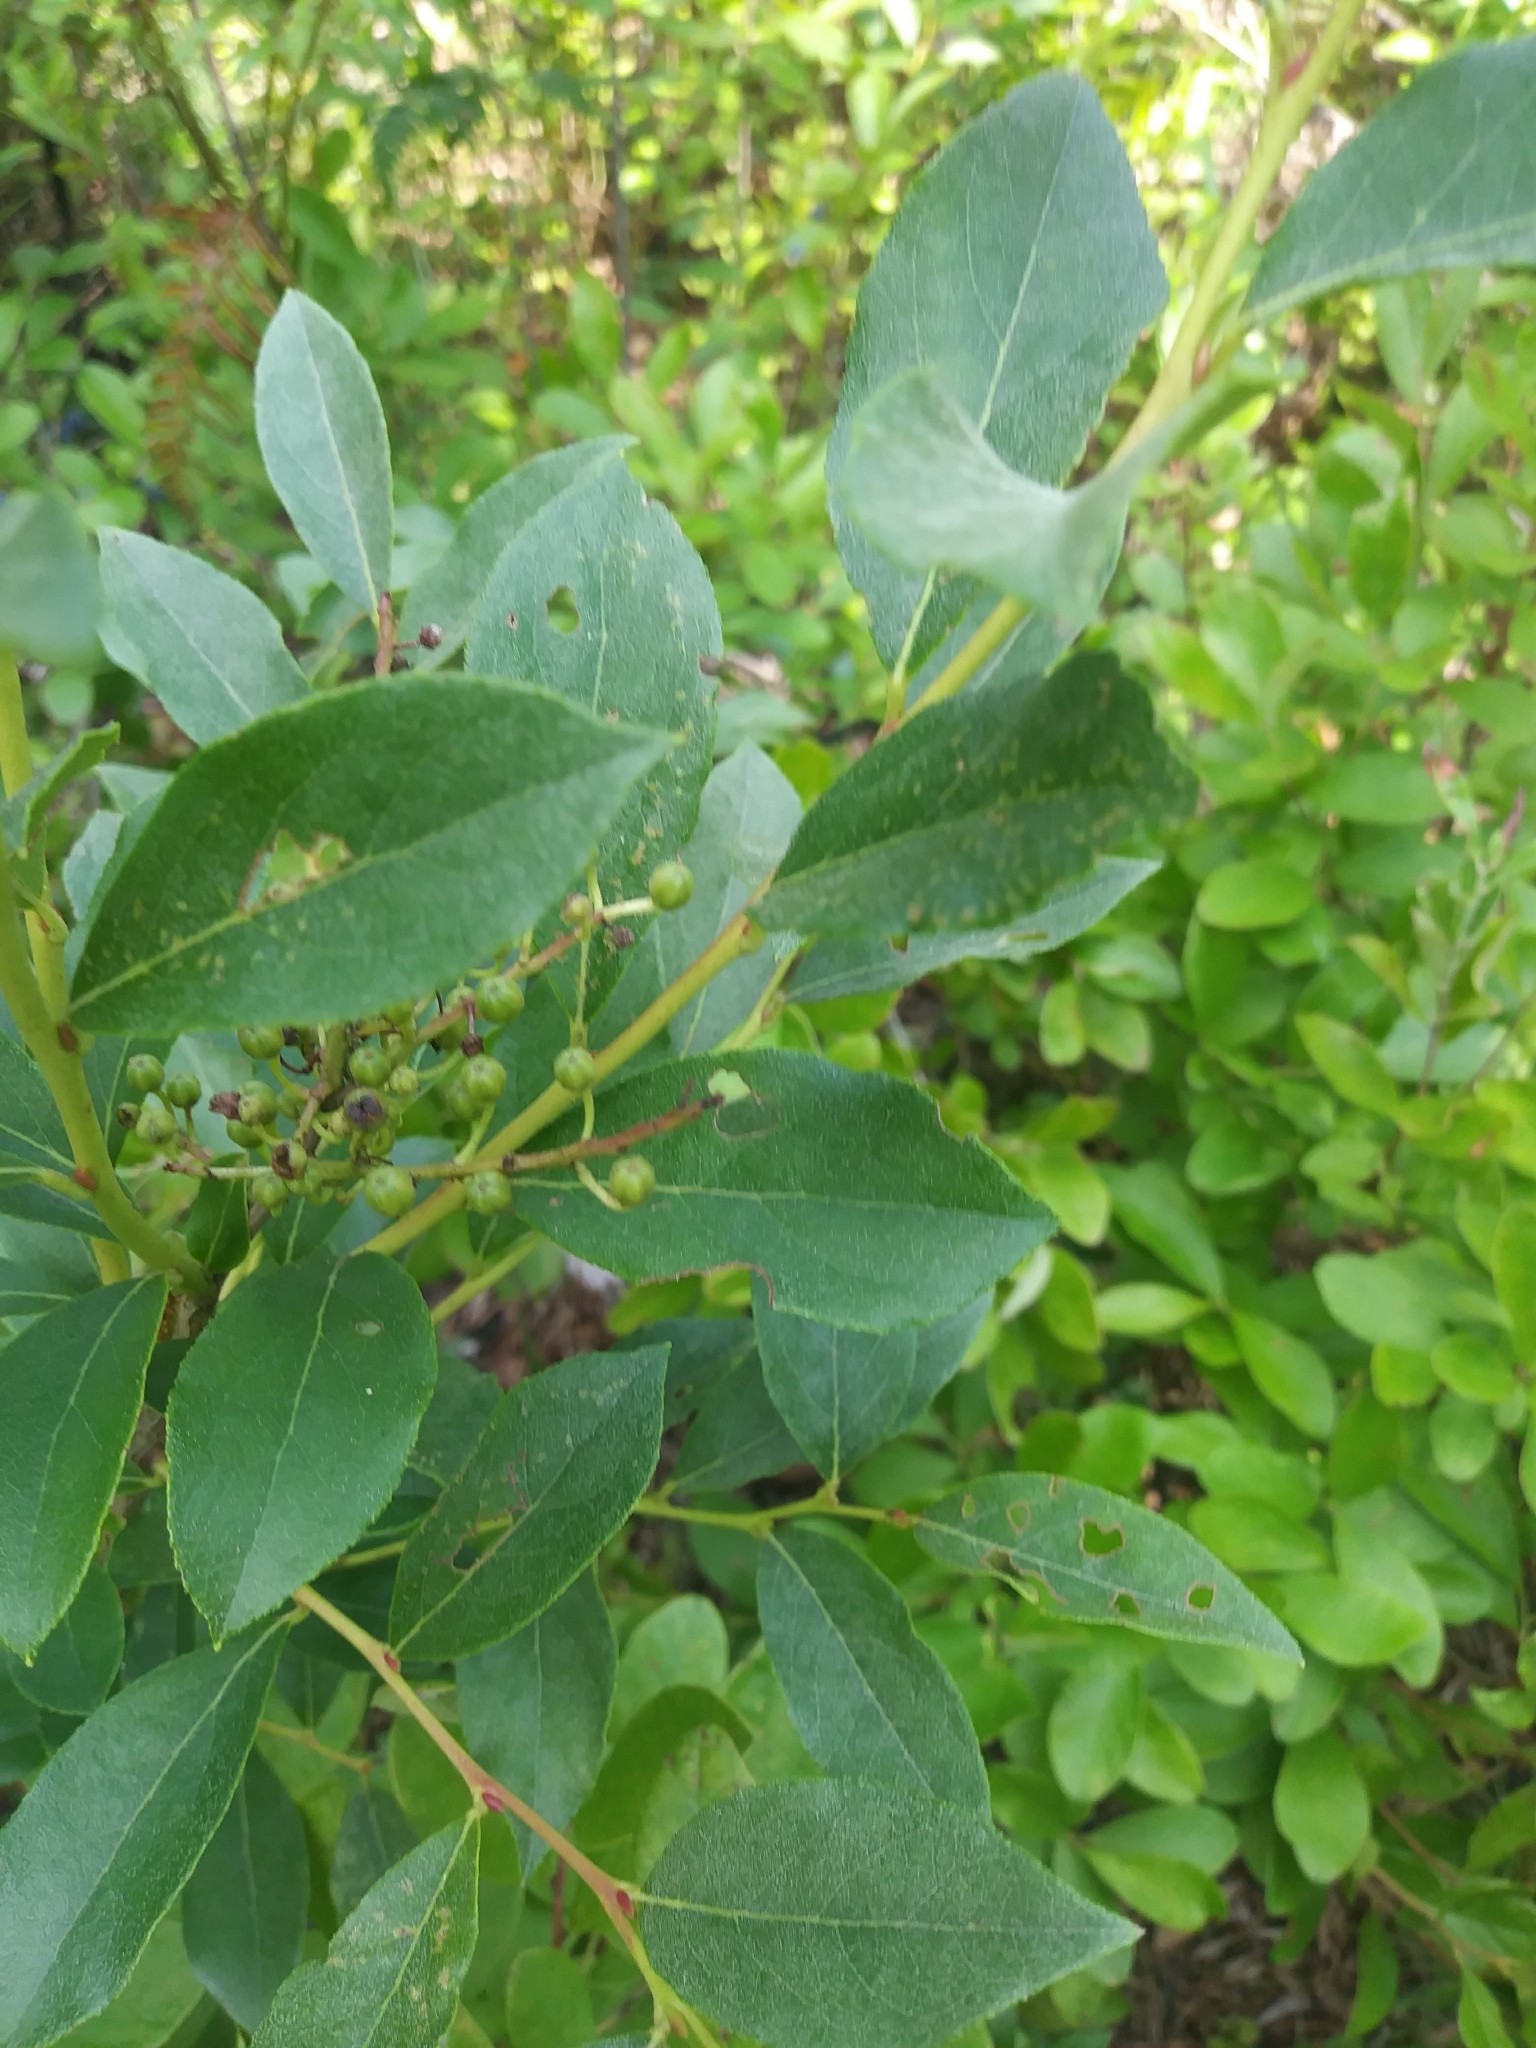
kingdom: Plantae
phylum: Tracheophyta
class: Magnoliopsida
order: Ericales
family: Ericaceae
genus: Lyonia
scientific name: Lyonia ligustrina
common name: Maleberry
